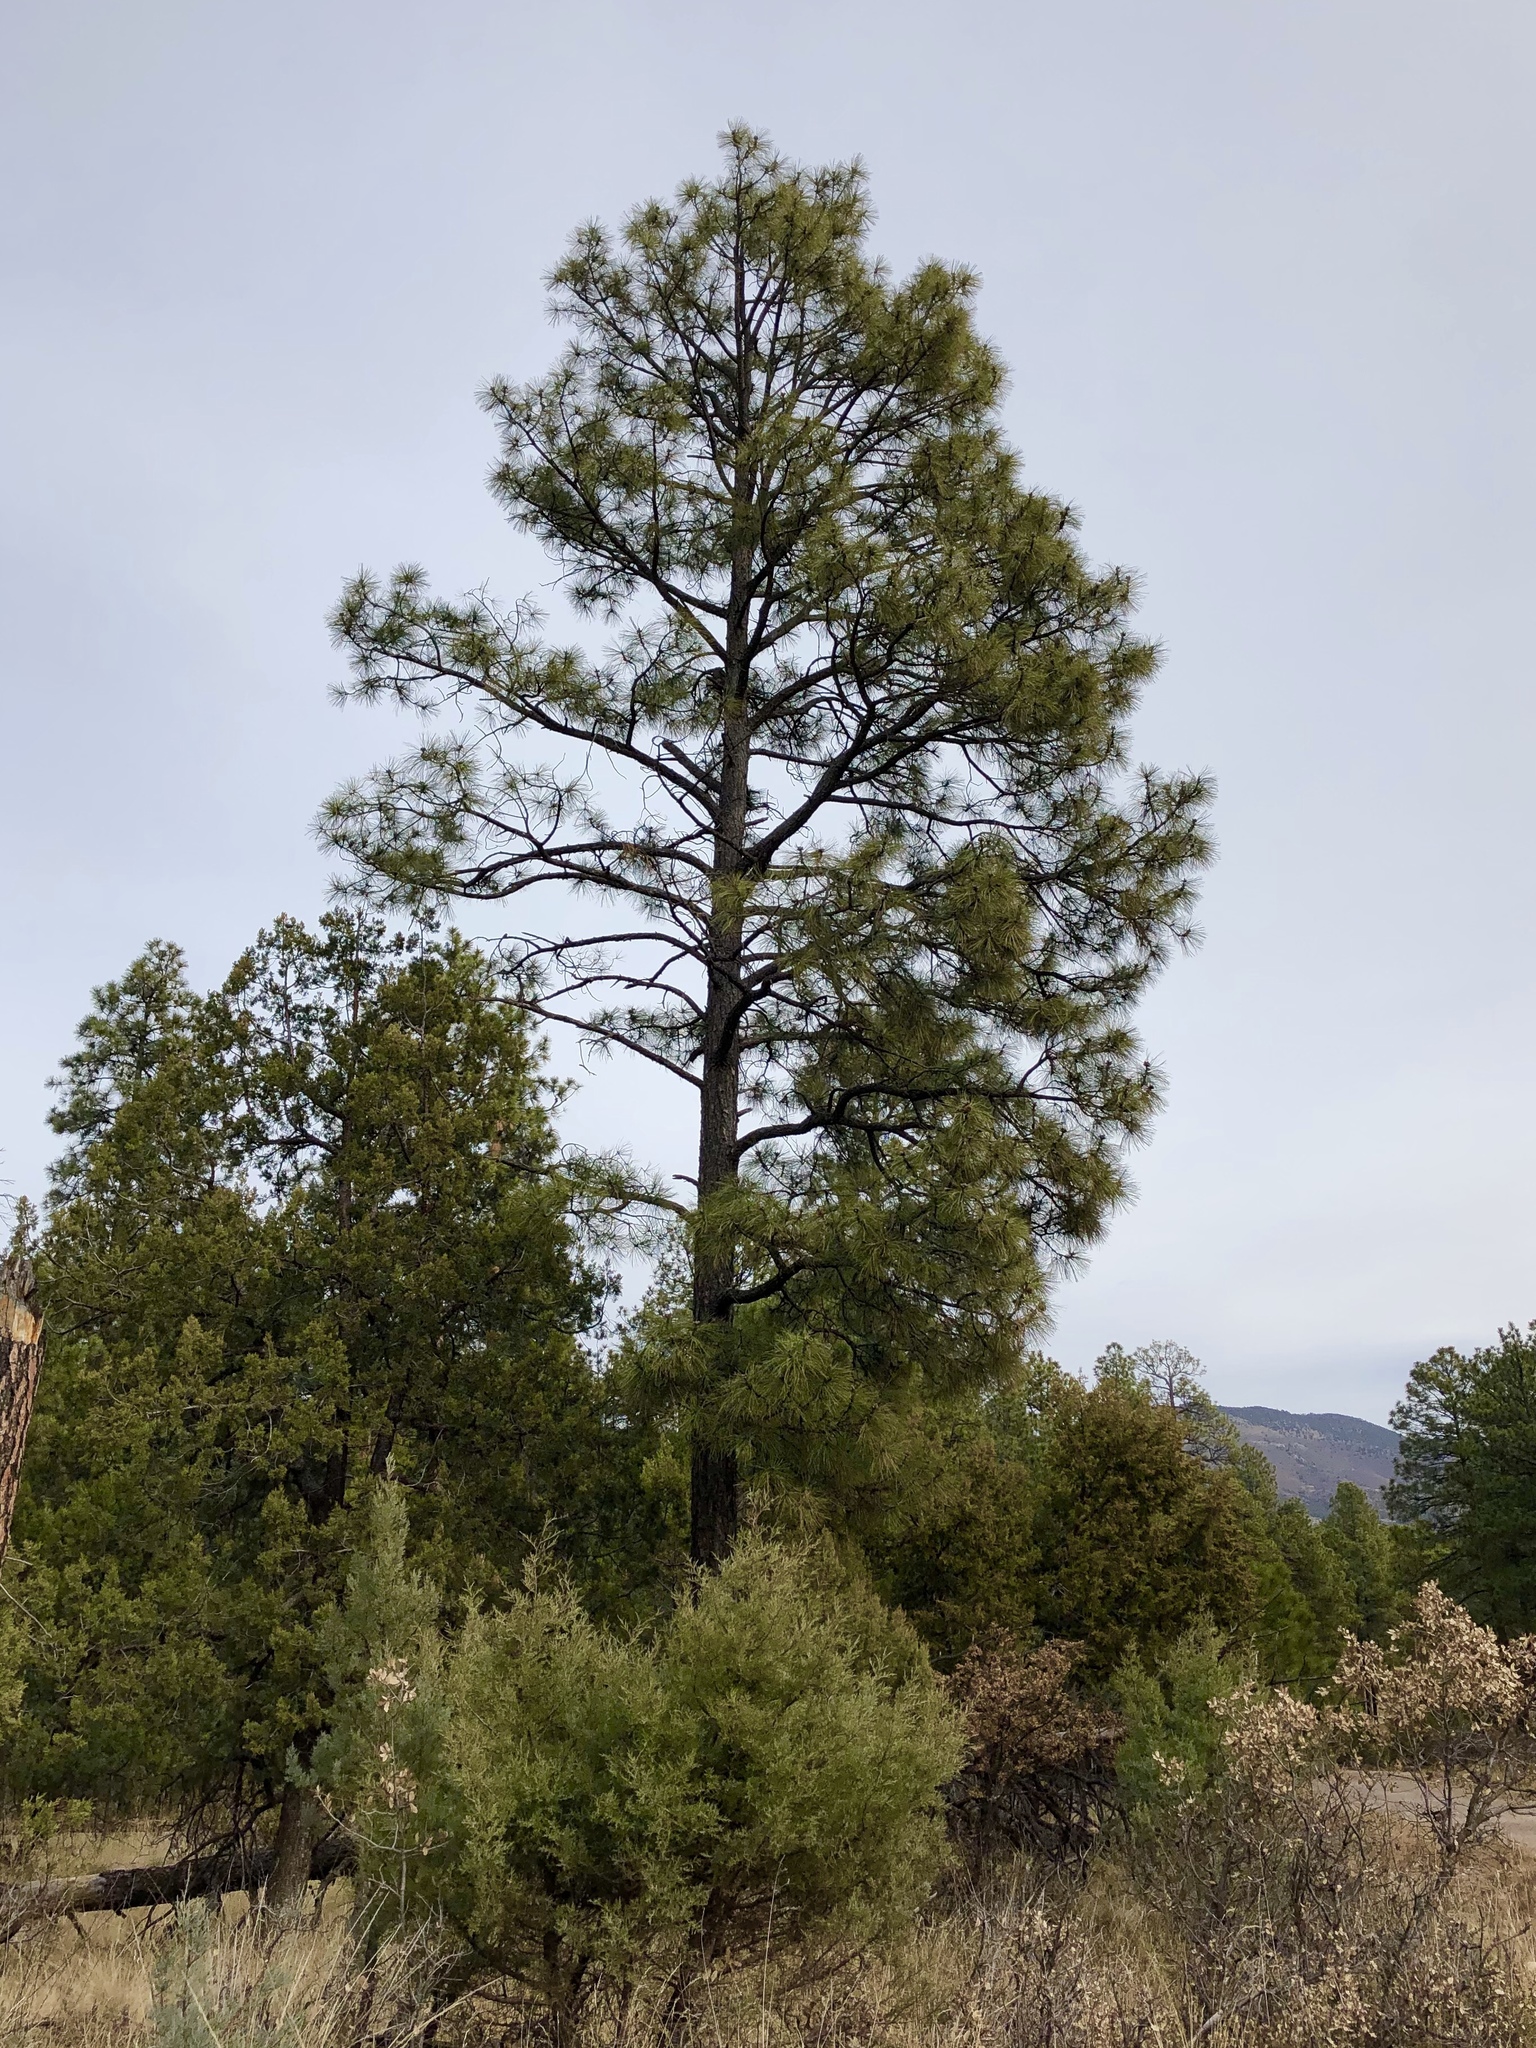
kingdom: Plantae
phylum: Tracheophyta
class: Pinopsida
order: Pinales
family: Pinaceae
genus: Pinus
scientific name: Pinus ponderosa
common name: Western yellow-pine
